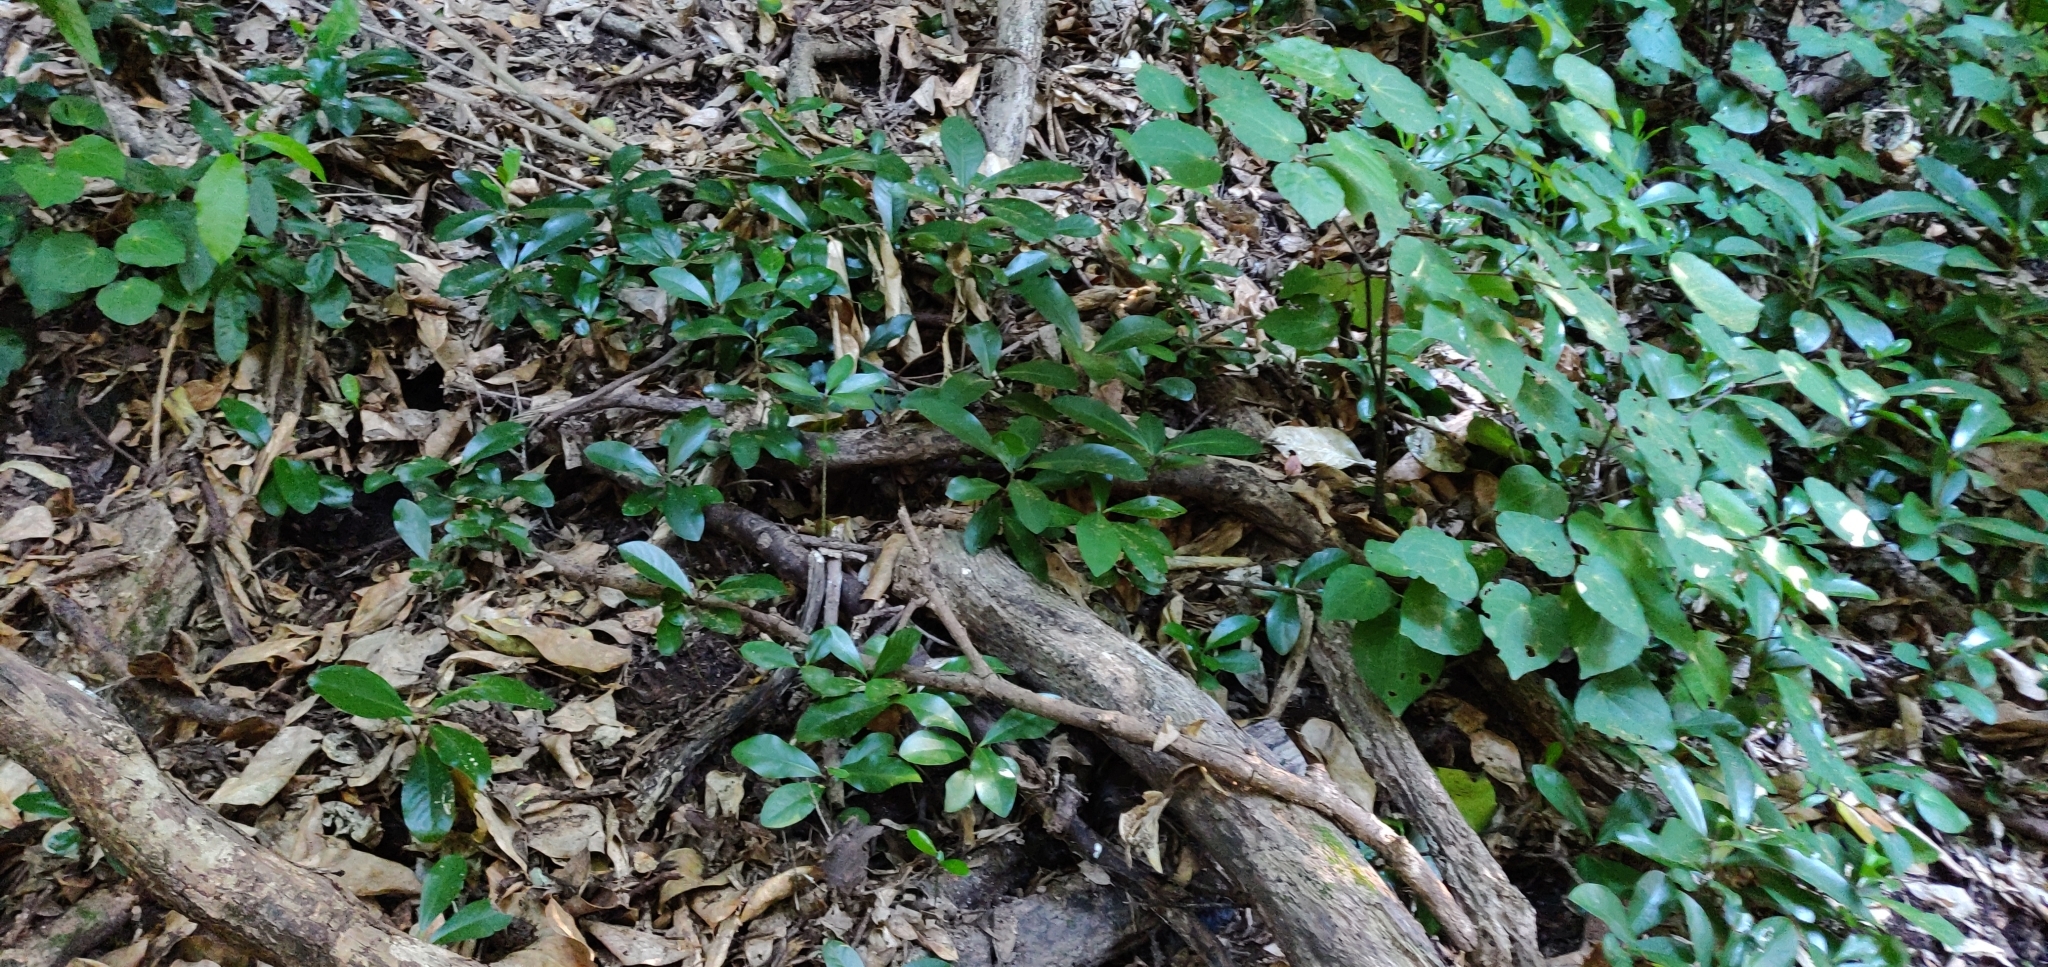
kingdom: Plantae
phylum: Tracheophyta
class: Magnoliopsida
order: Cucurbitales
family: Corynocarpaceae
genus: Corynocarpus
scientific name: Corynocarpus laevigatus
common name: New zealand laurel
